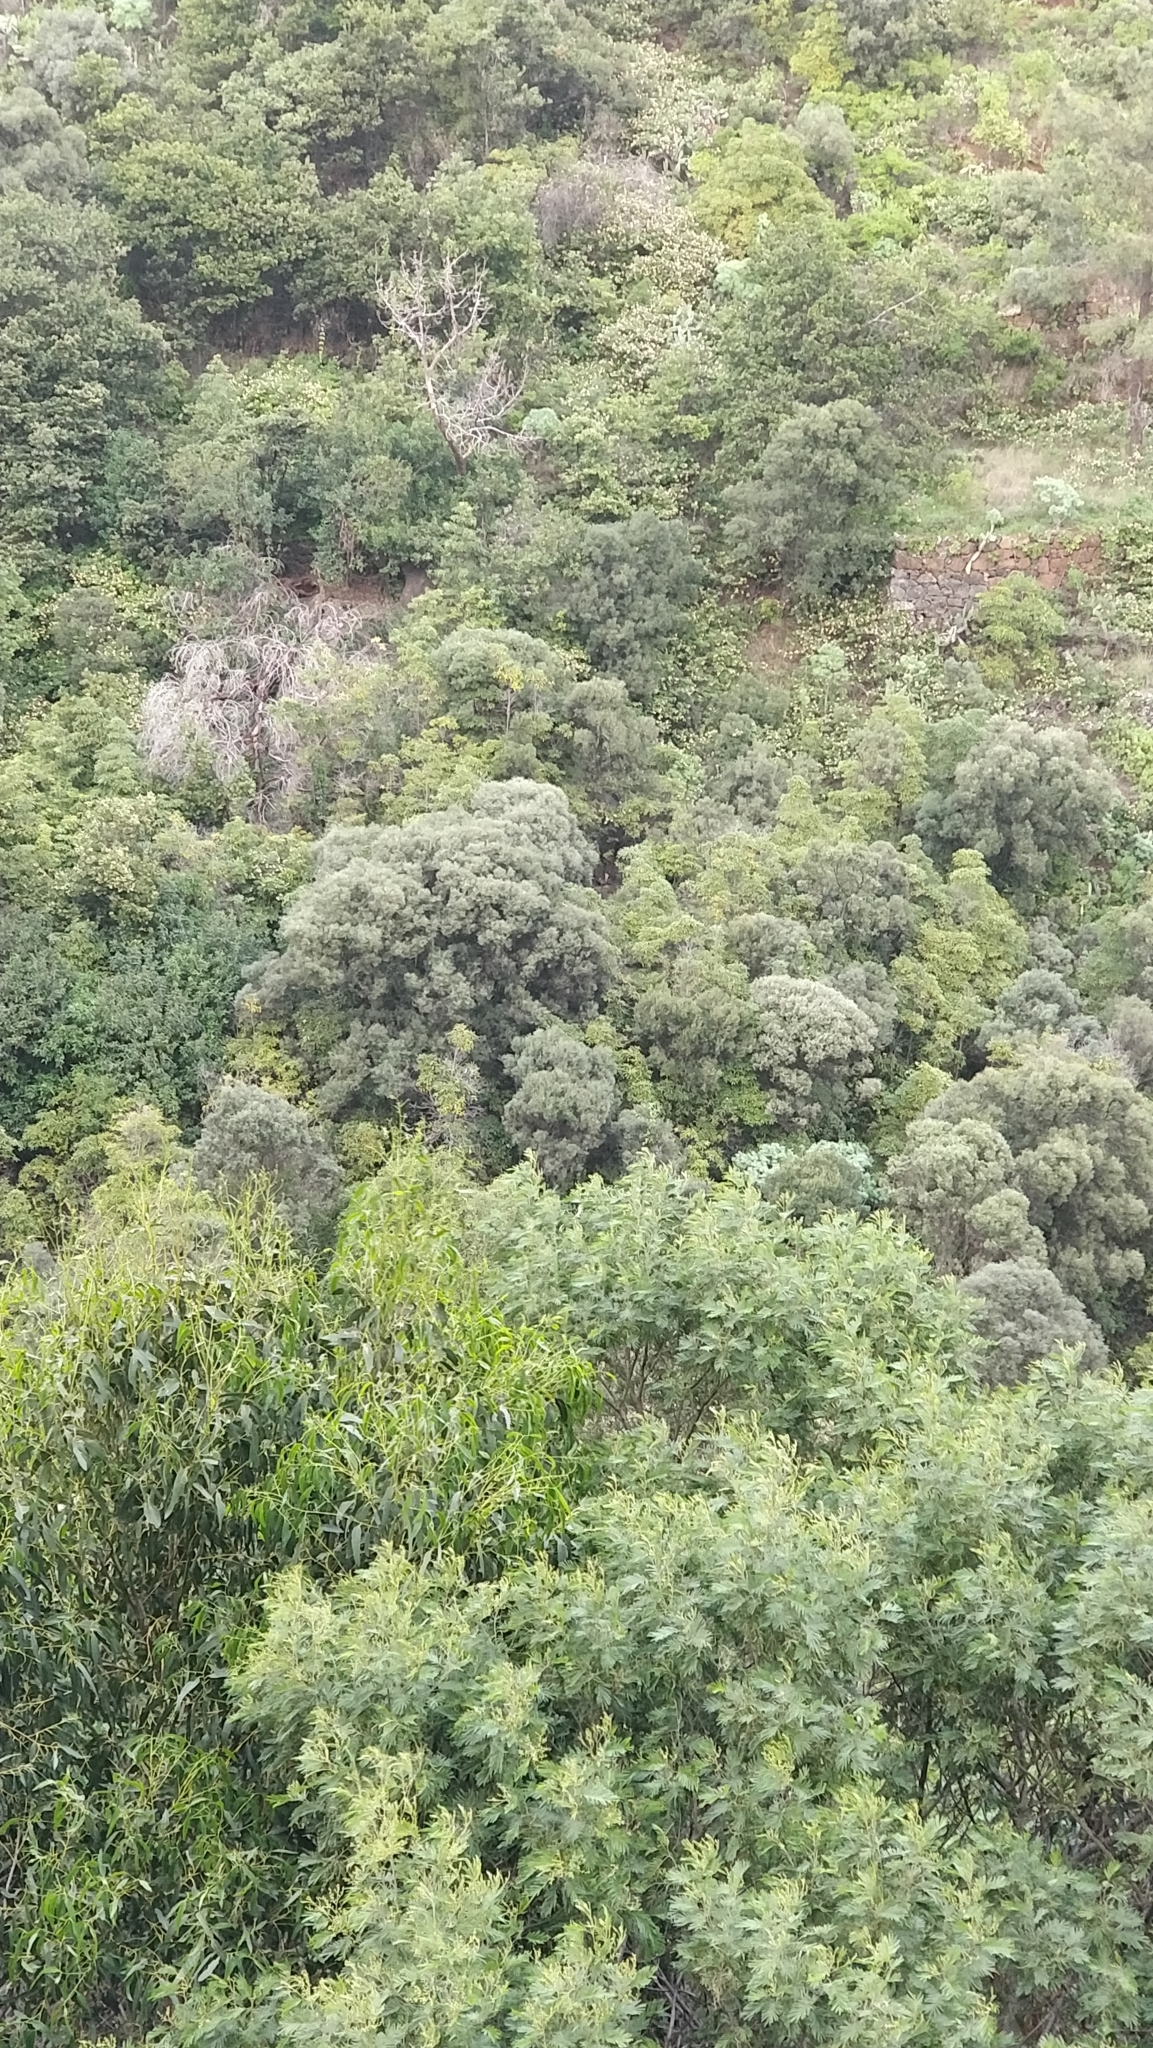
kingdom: Plantae
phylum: Tracheophyta
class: Magnoliopsida
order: Fabales
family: Fabaceae
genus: Acacia
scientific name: Acacia mearnsii
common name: Black wattle
